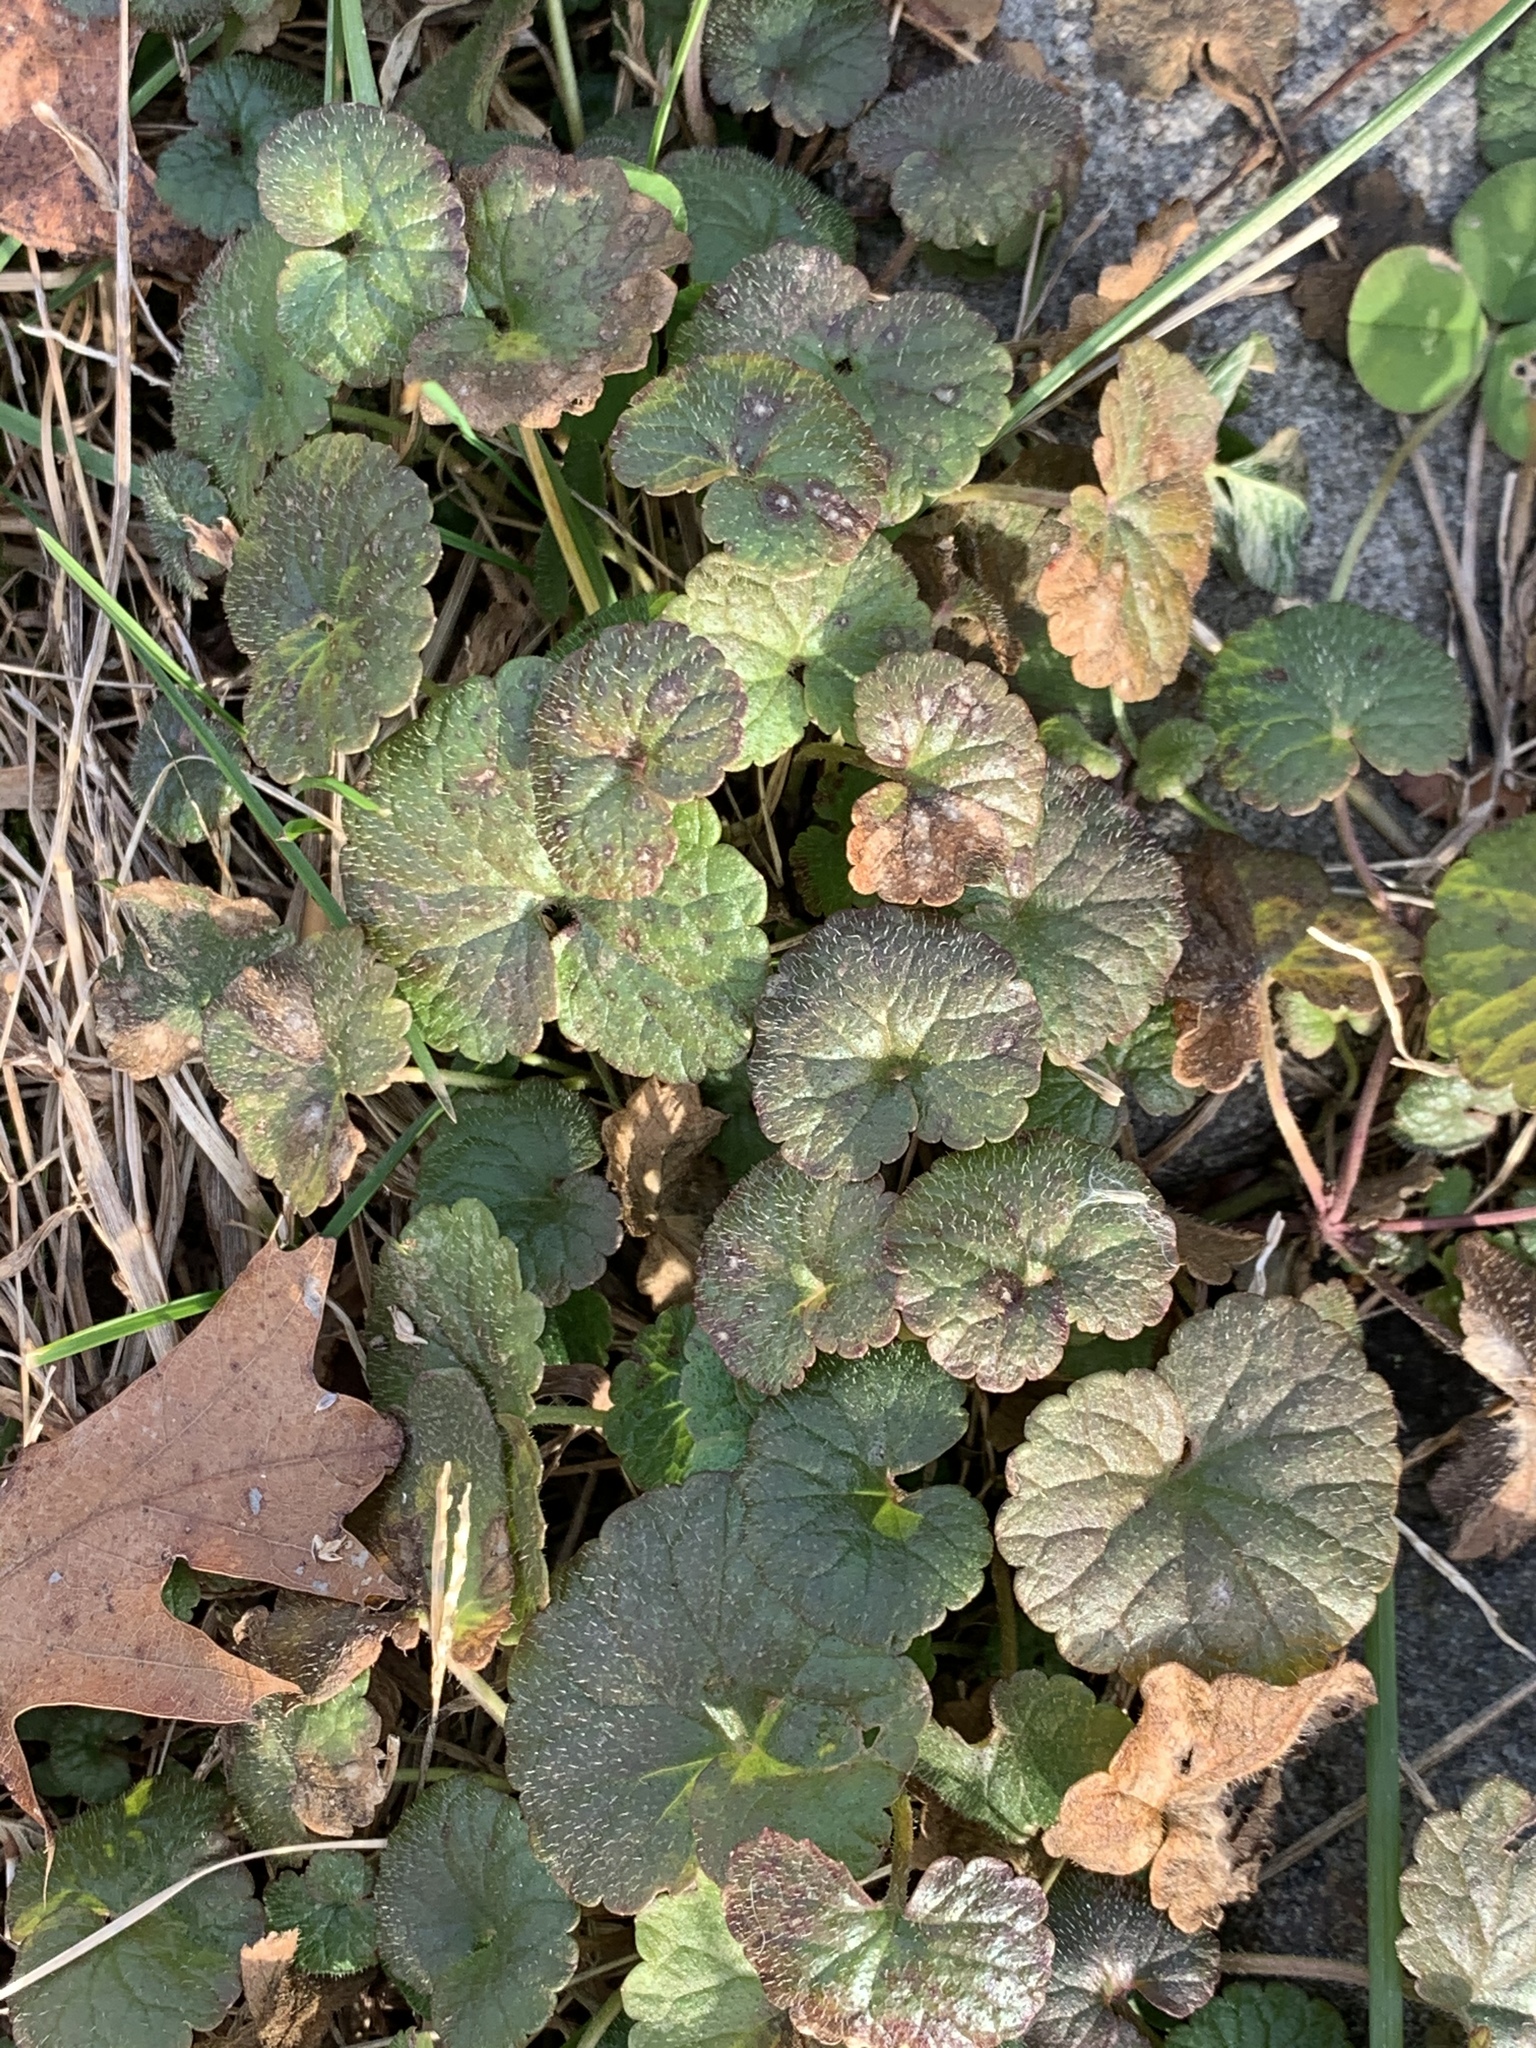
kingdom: Plantae
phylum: Tracheophyta
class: Magnoliopsida
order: Lamiales
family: Lamiaceae
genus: Glechoma
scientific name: Glechoma hederacea
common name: Ground ivy
